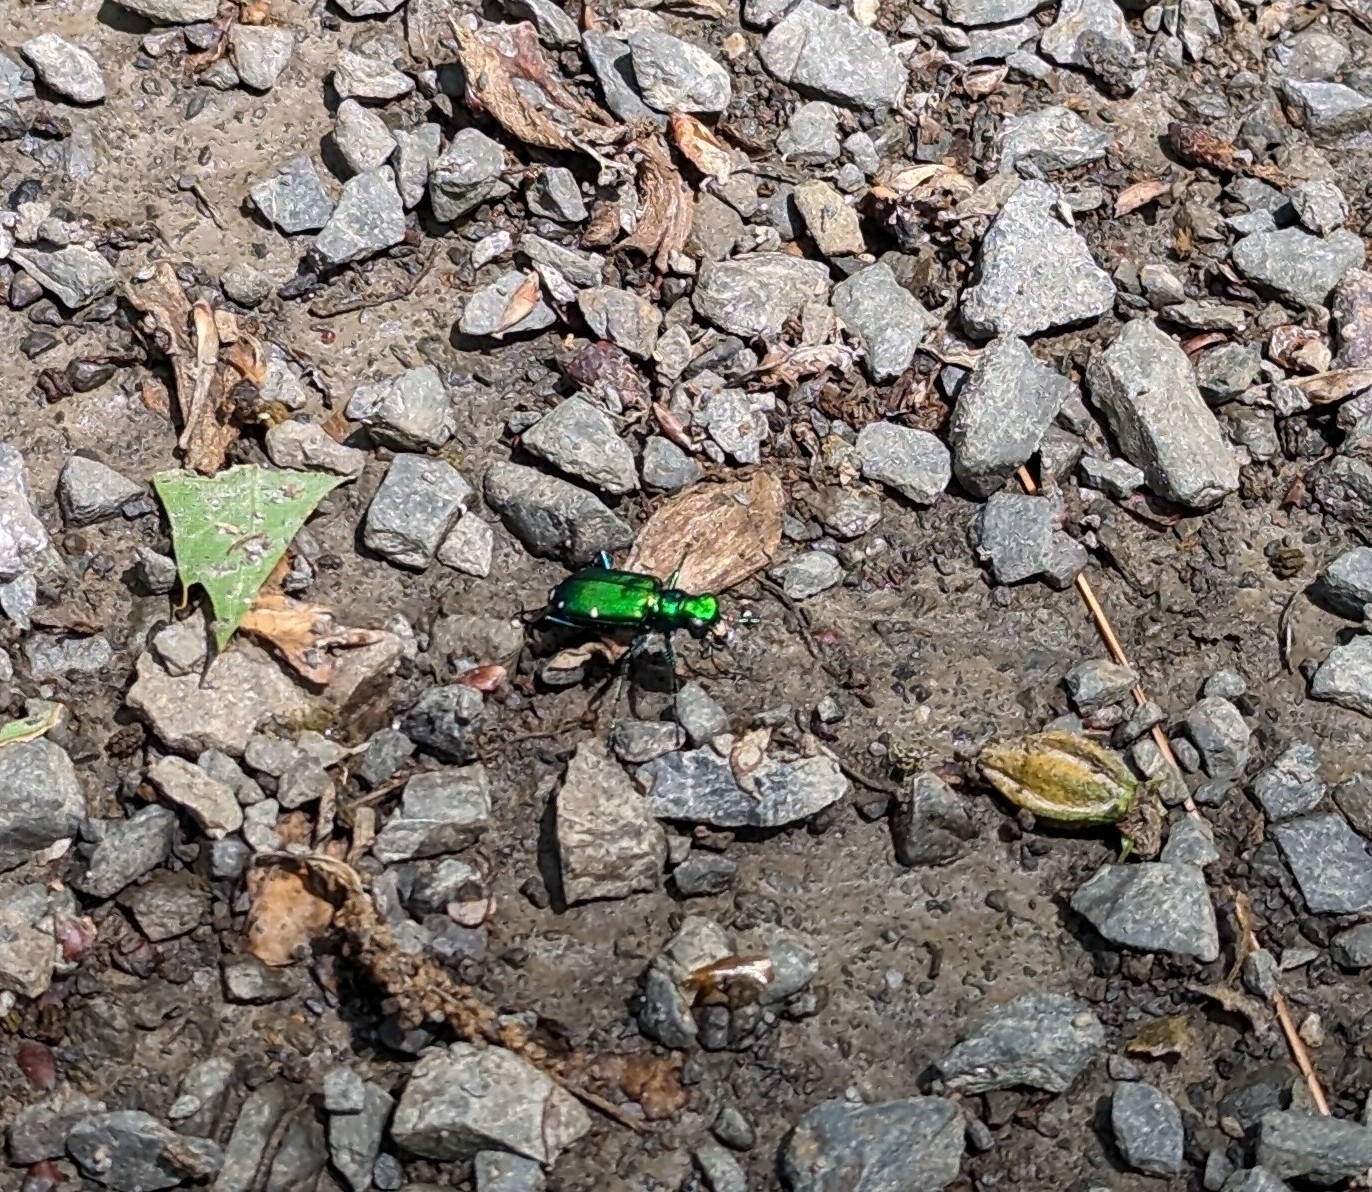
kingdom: Animalia
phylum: Arthropoda
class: Insecta
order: Coleoptera
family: Carabidae
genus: Cicindela
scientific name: Cicindela sexguttata
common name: Six-spotted tiger beetle
